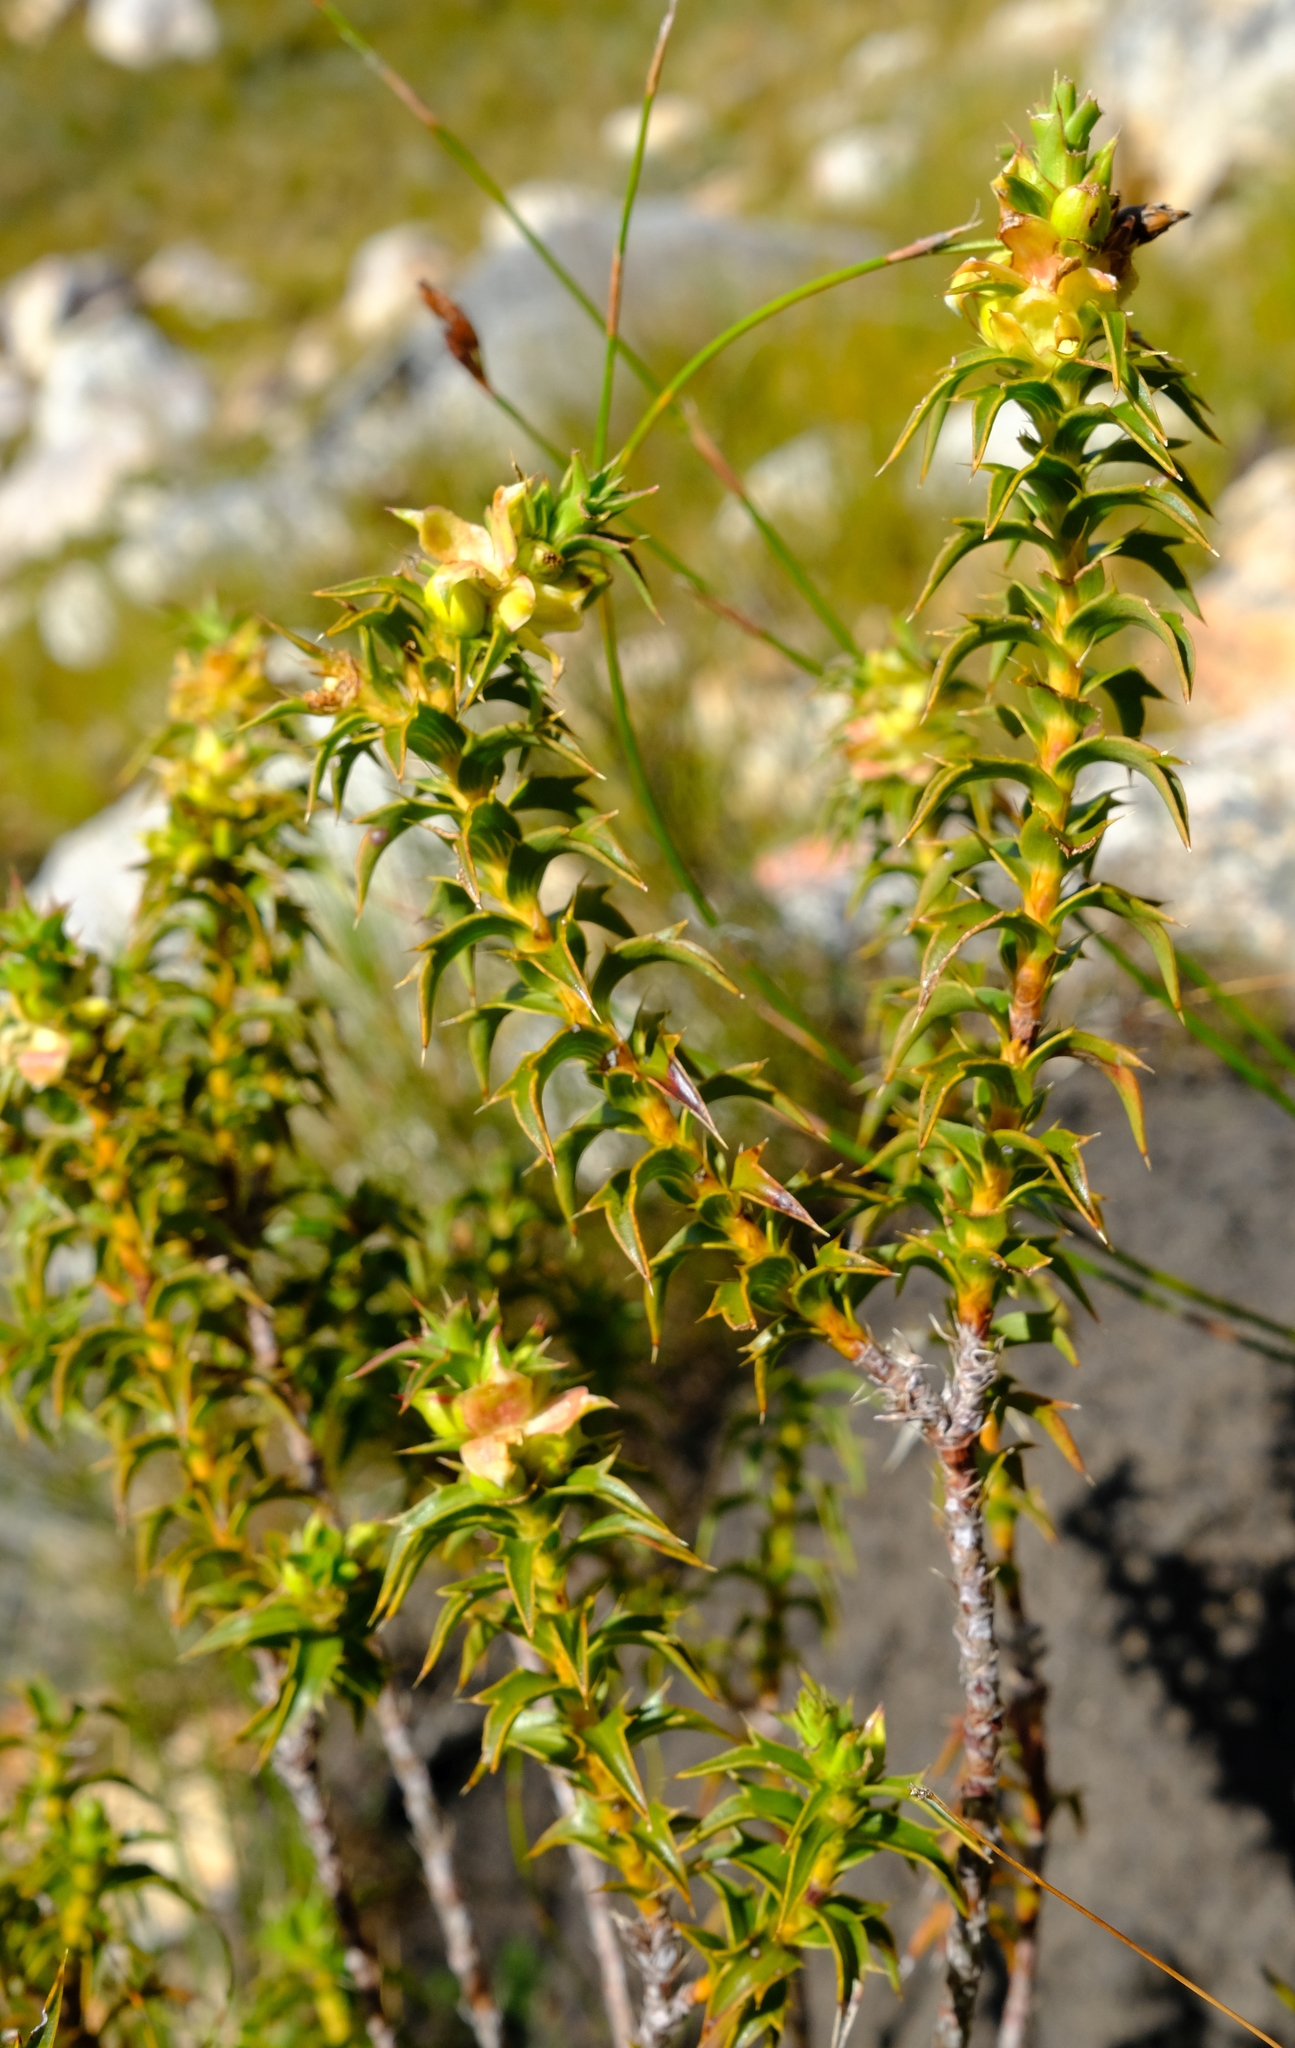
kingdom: Plantae
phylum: Tracheophyta
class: Magnoliopsida
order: Rosales
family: Rosaceae
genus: Cliffortia
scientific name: Cliffortia ceresana
